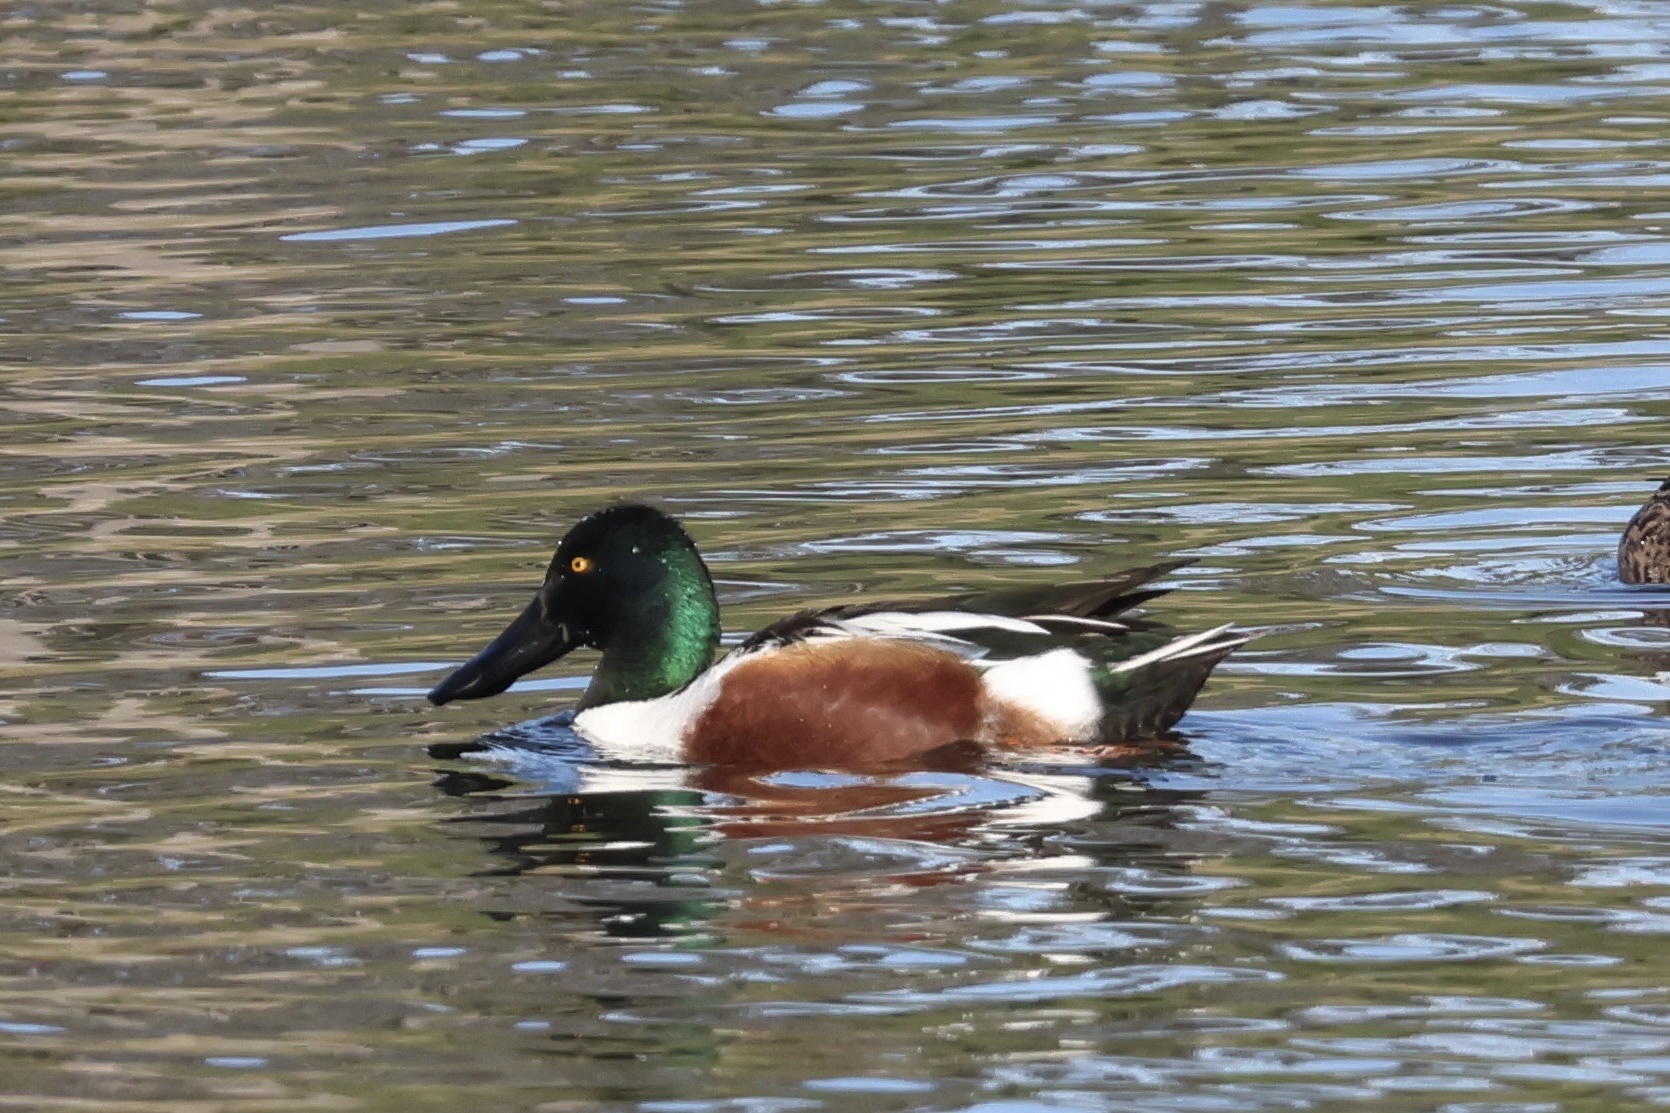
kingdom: Animalia
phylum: Chordata
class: Aves
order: Anseriformes
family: Anatidae
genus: Spatula
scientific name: Spatula clypeata
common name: Northern shoveler
